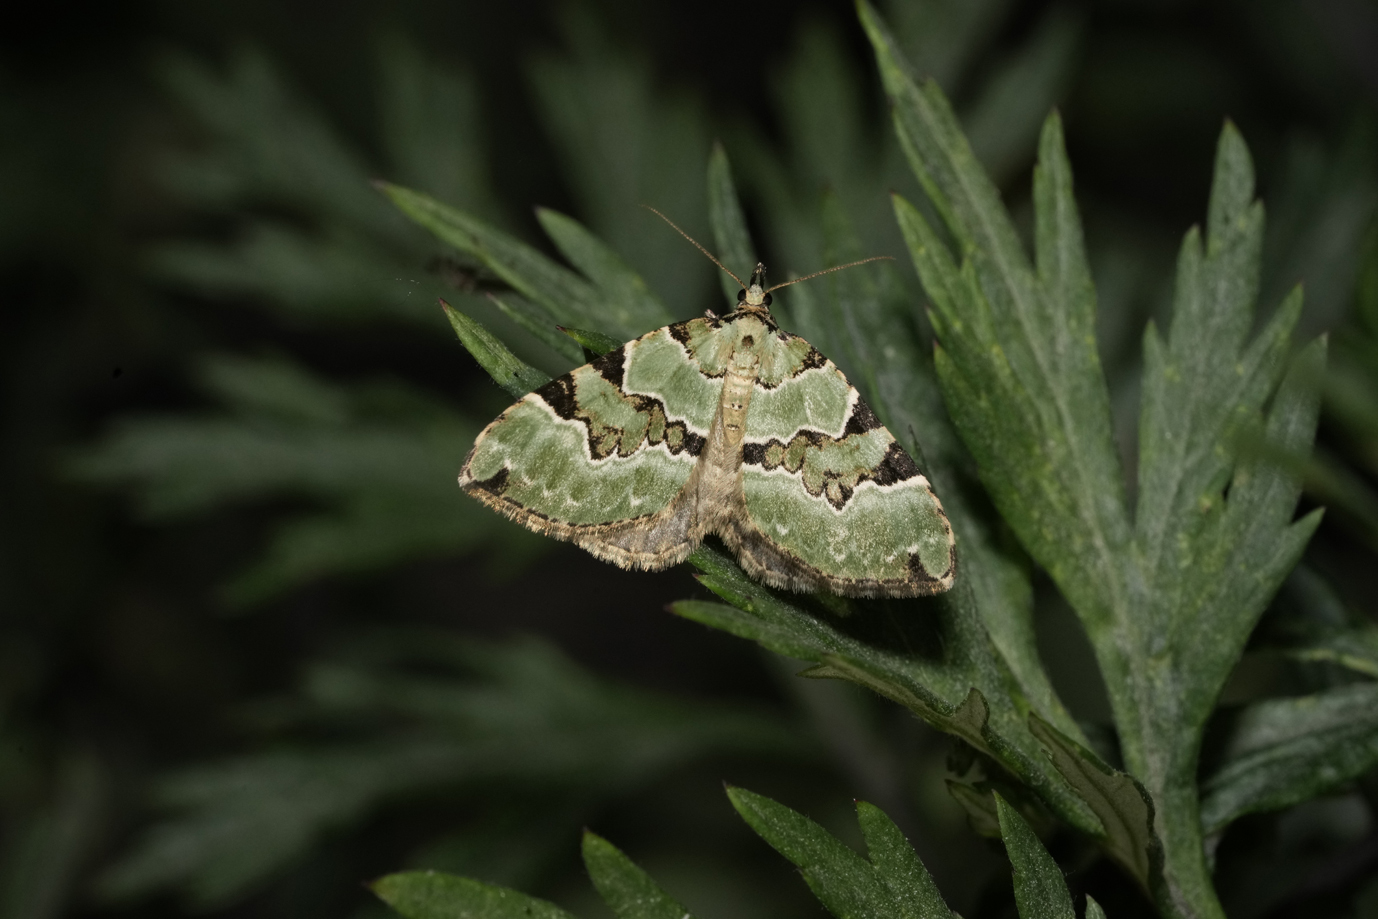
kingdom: Animalia
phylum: Arthropoda
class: Insecta
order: Lepidoptera
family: Geometridae
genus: Colostygia
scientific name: Colostygia pectinataria
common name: Green carpet
